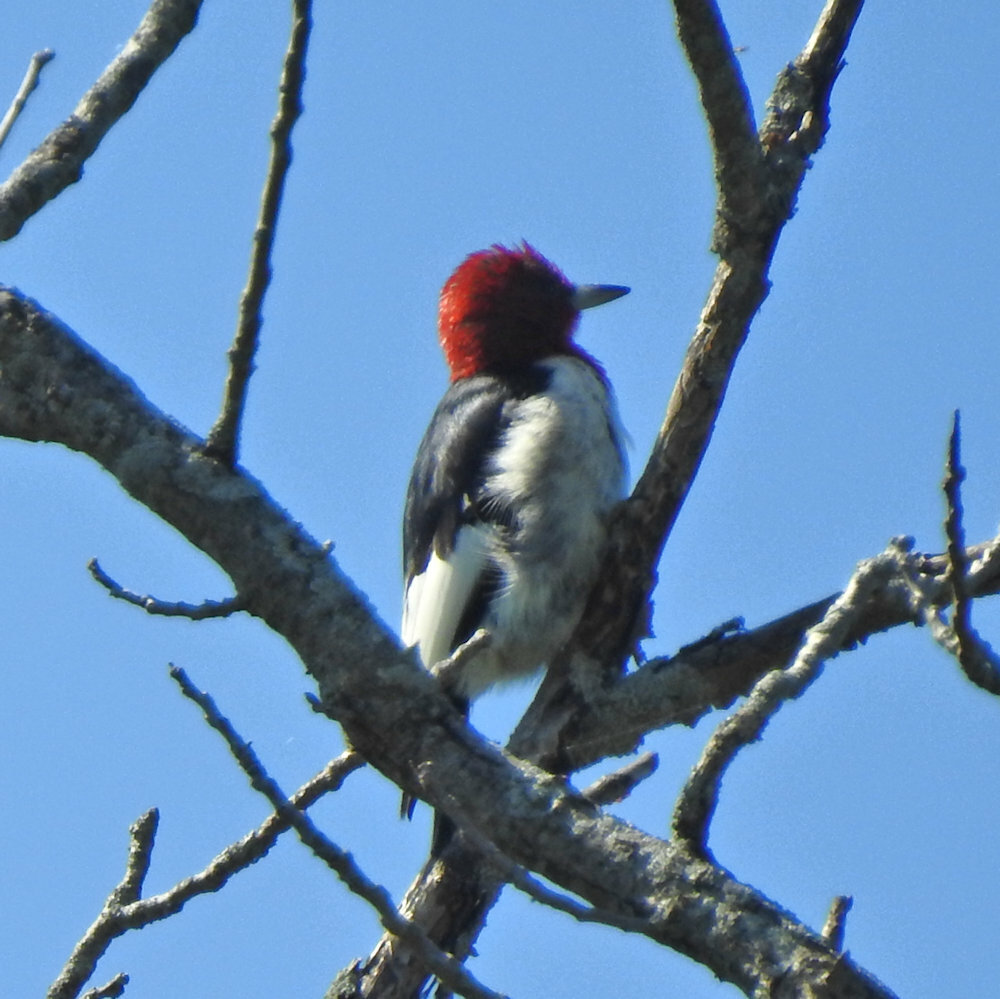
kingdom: Animalia
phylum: Chordata
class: Aves
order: Piciformes
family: Picidae
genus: Melanerpes
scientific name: Melanerpes erythrocephalus
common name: Red-headed woodpecker
